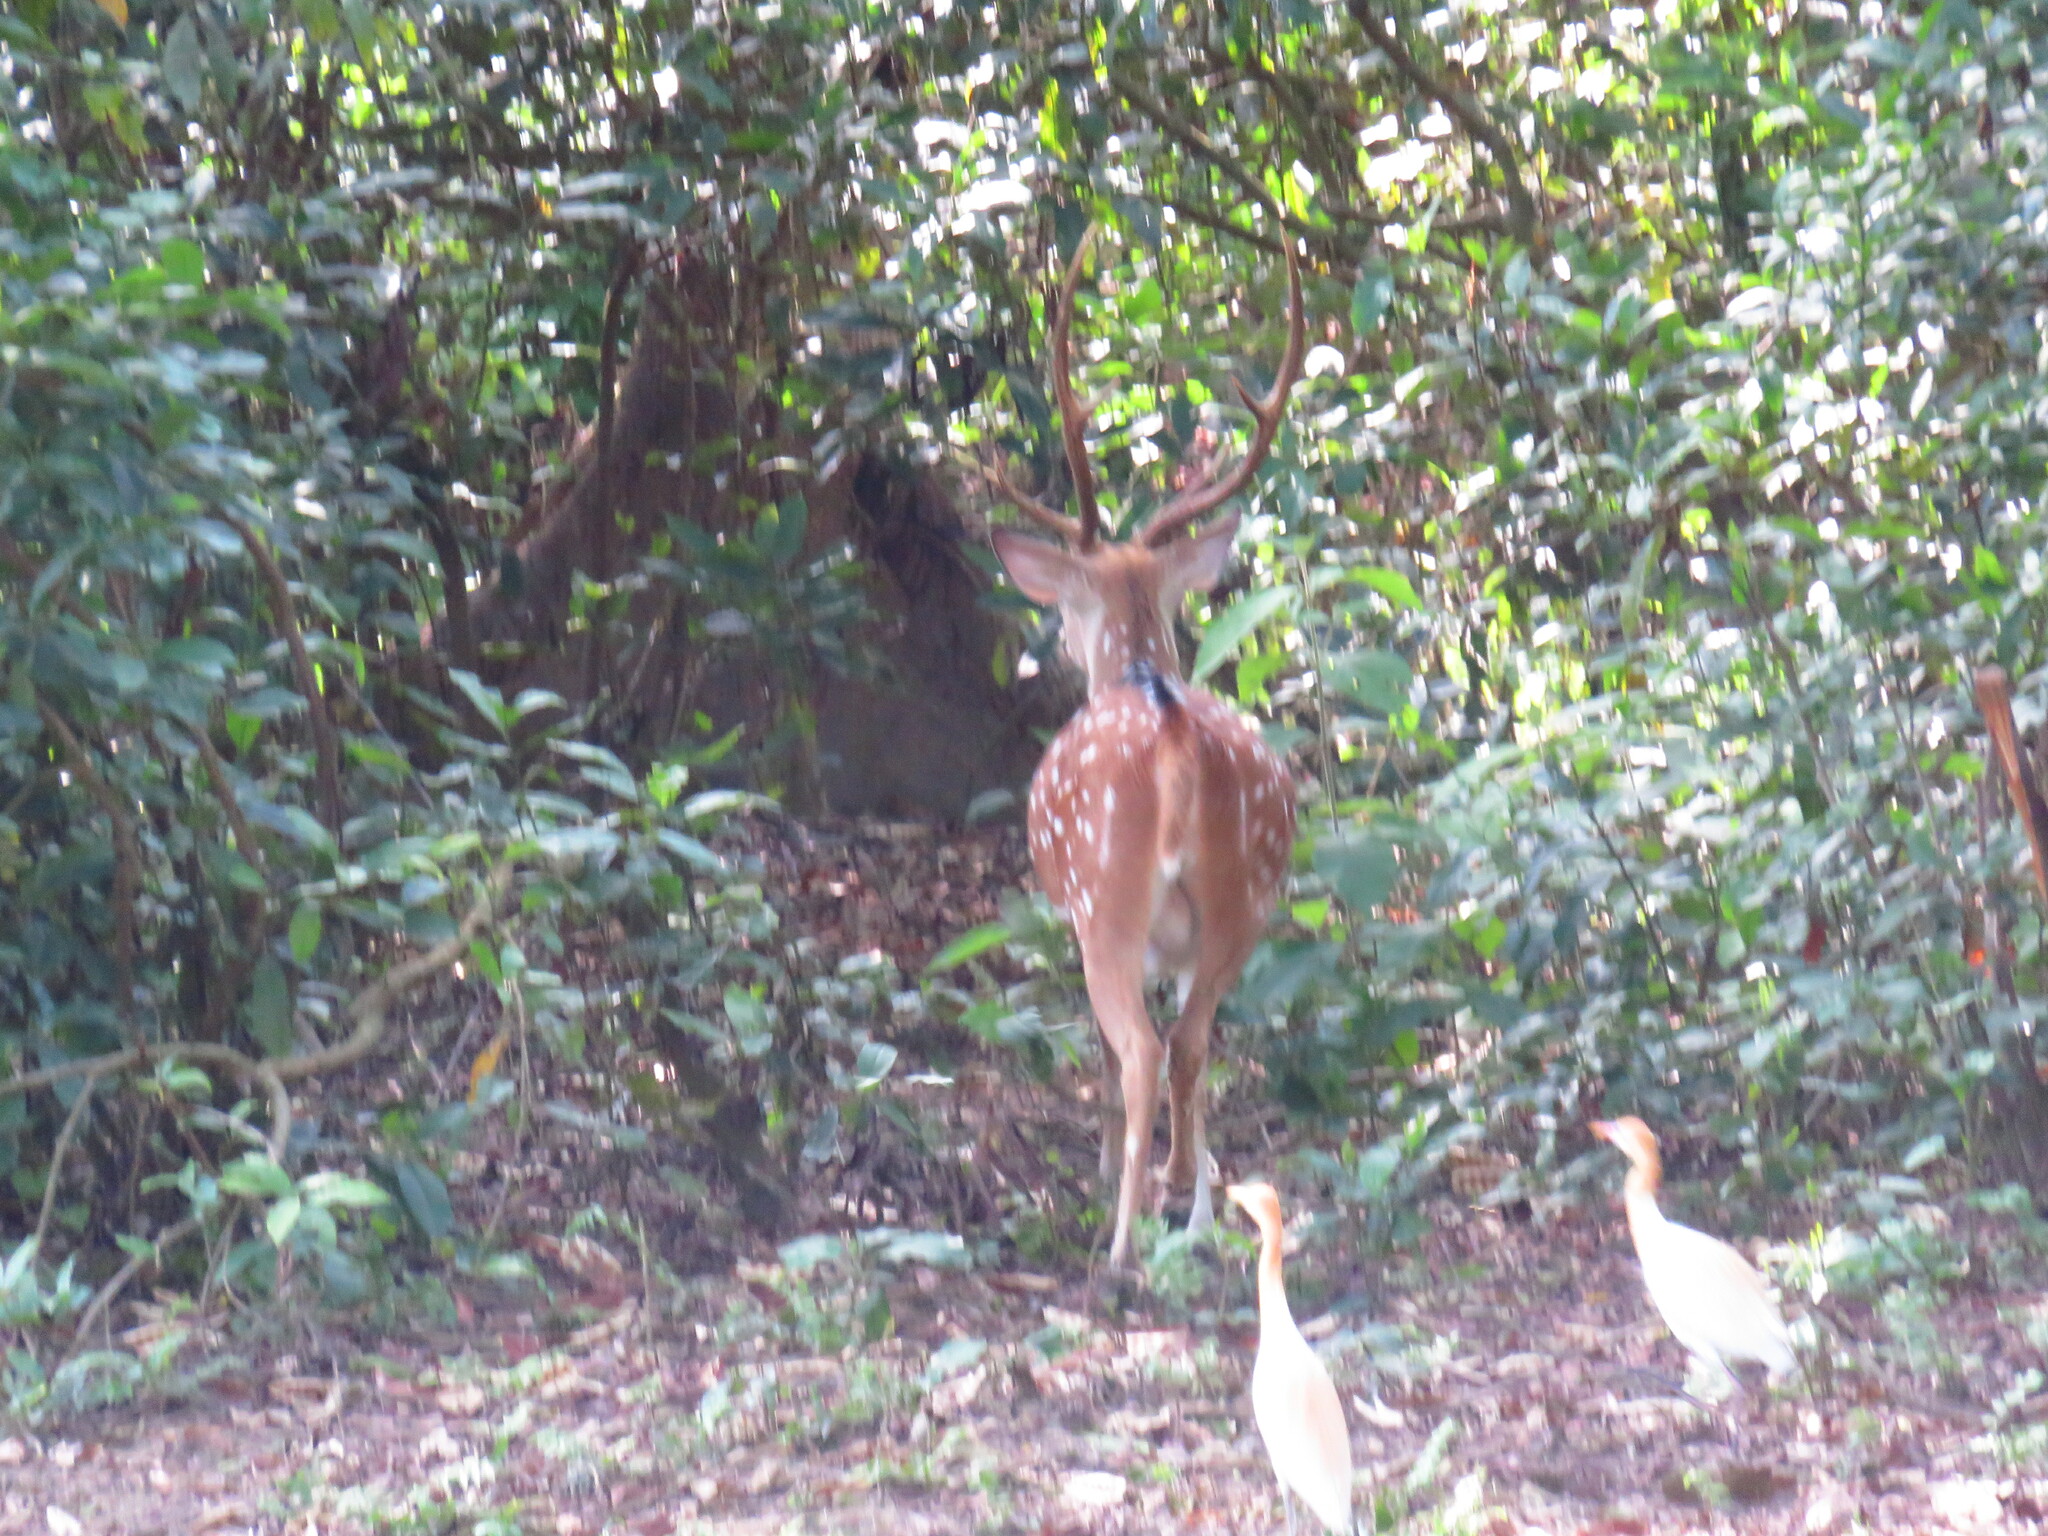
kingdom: Animalia
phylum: Chordata
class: Mammalia
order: Artiodactyla
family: Cervidae
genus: Axis
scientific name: Axis axis
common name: Chital
